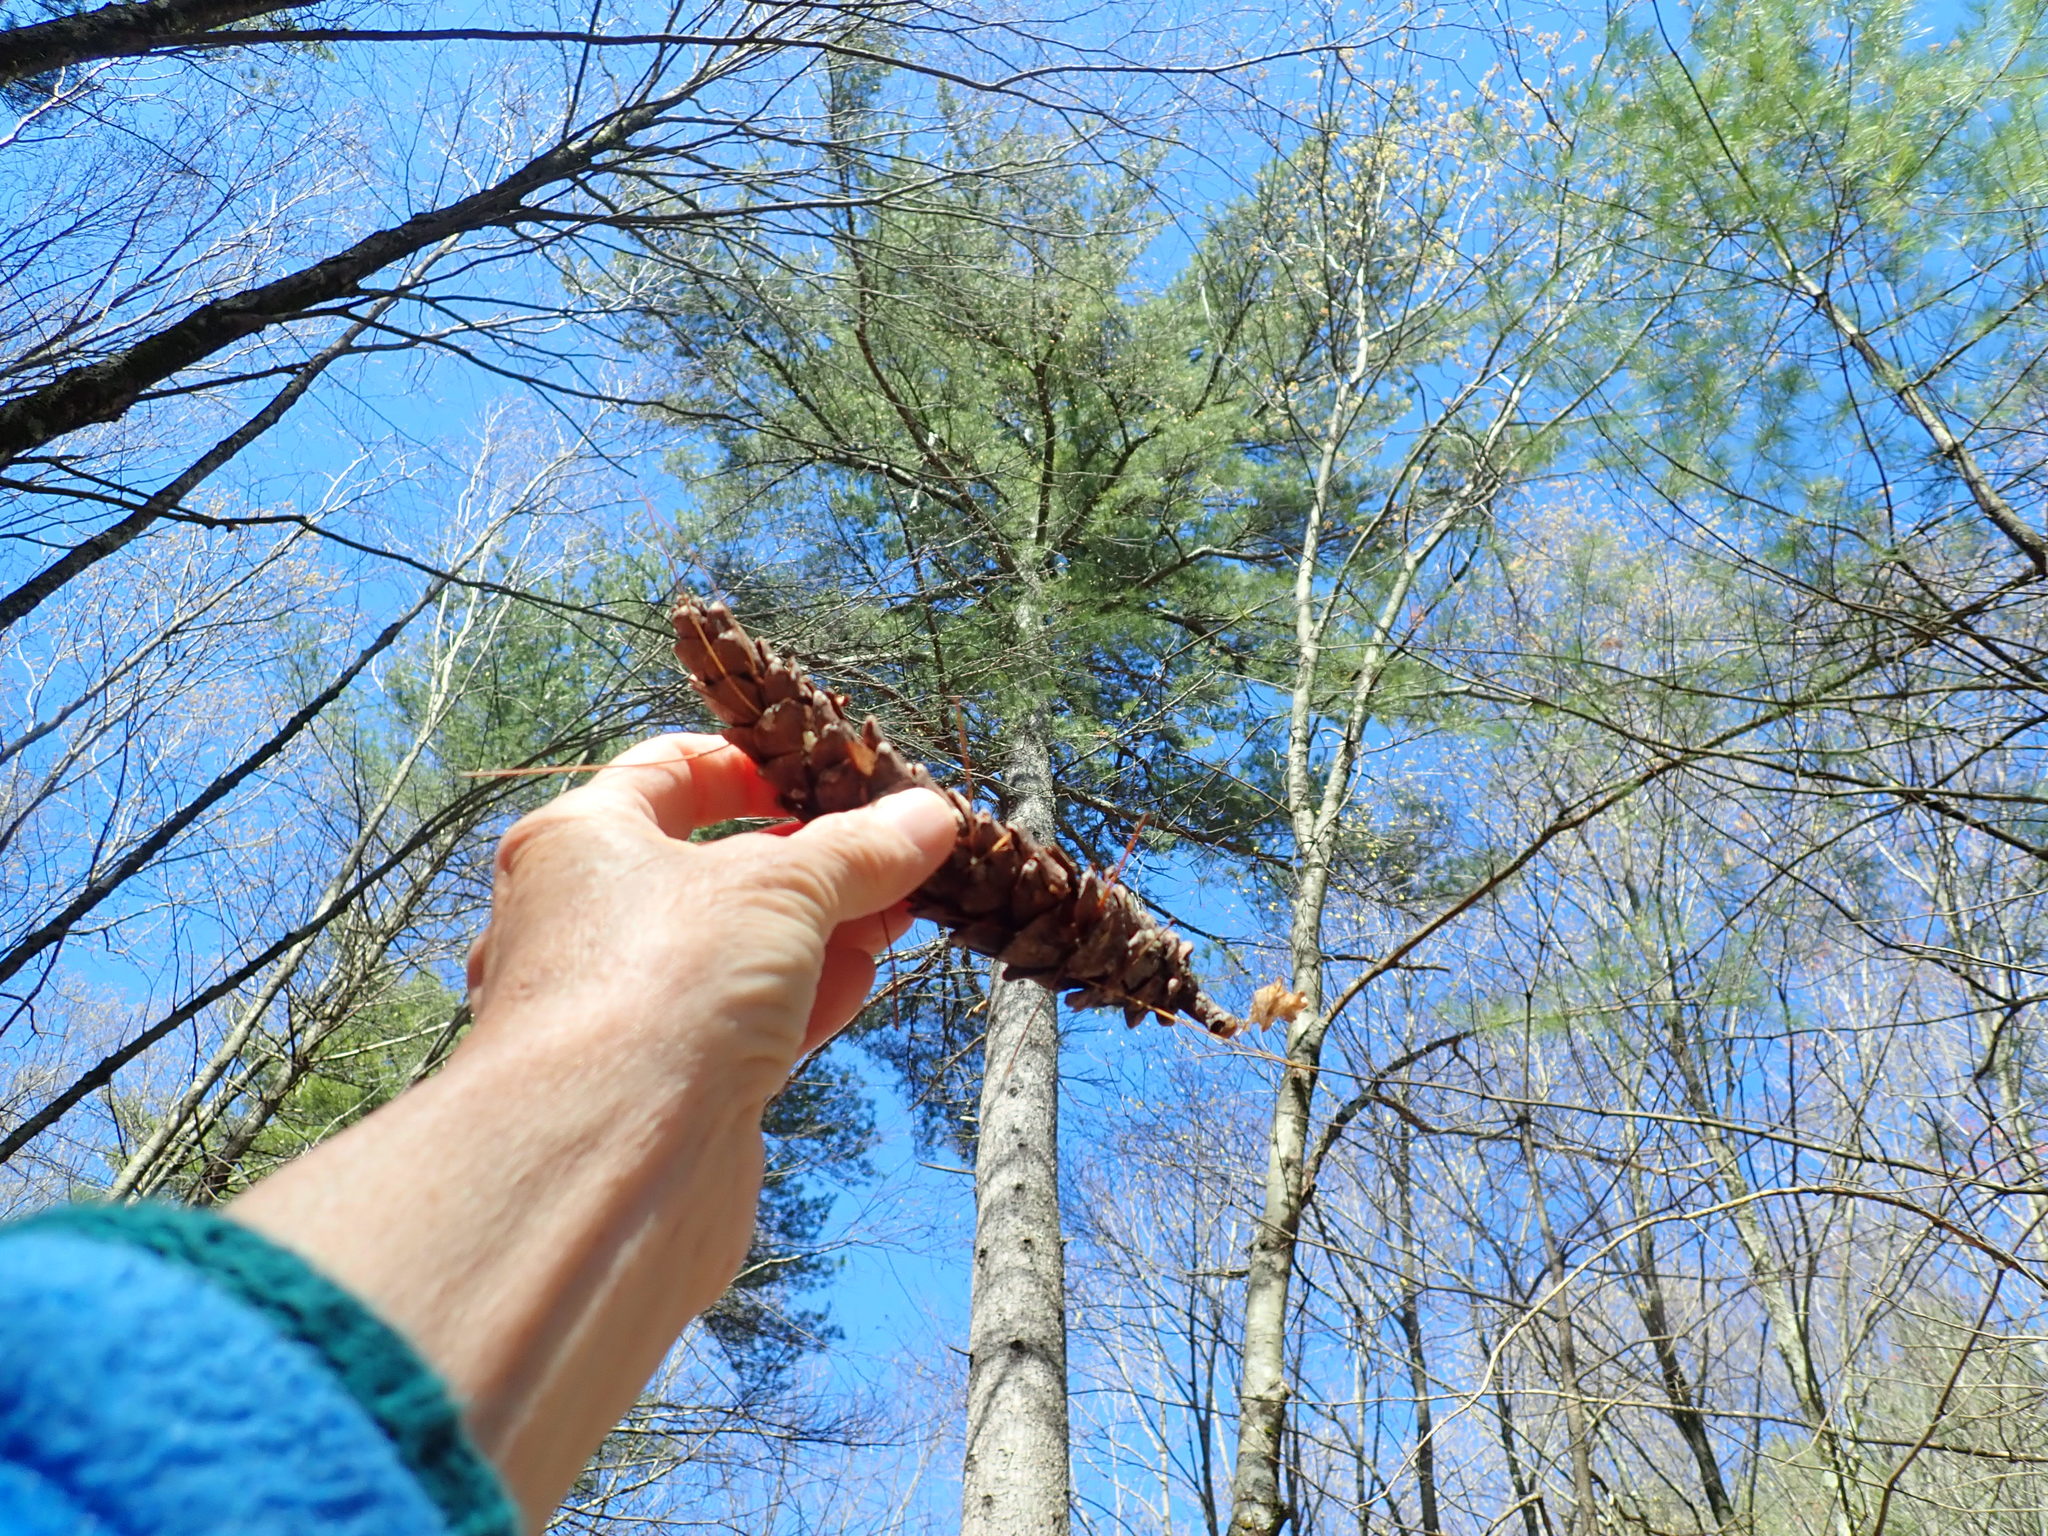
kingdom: Plantae
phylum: Tracheophyta
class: Pinopsida
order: Pinales
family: Pinaceae
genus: Pinus
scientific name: Pinus strobus
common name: Weymouth pine
